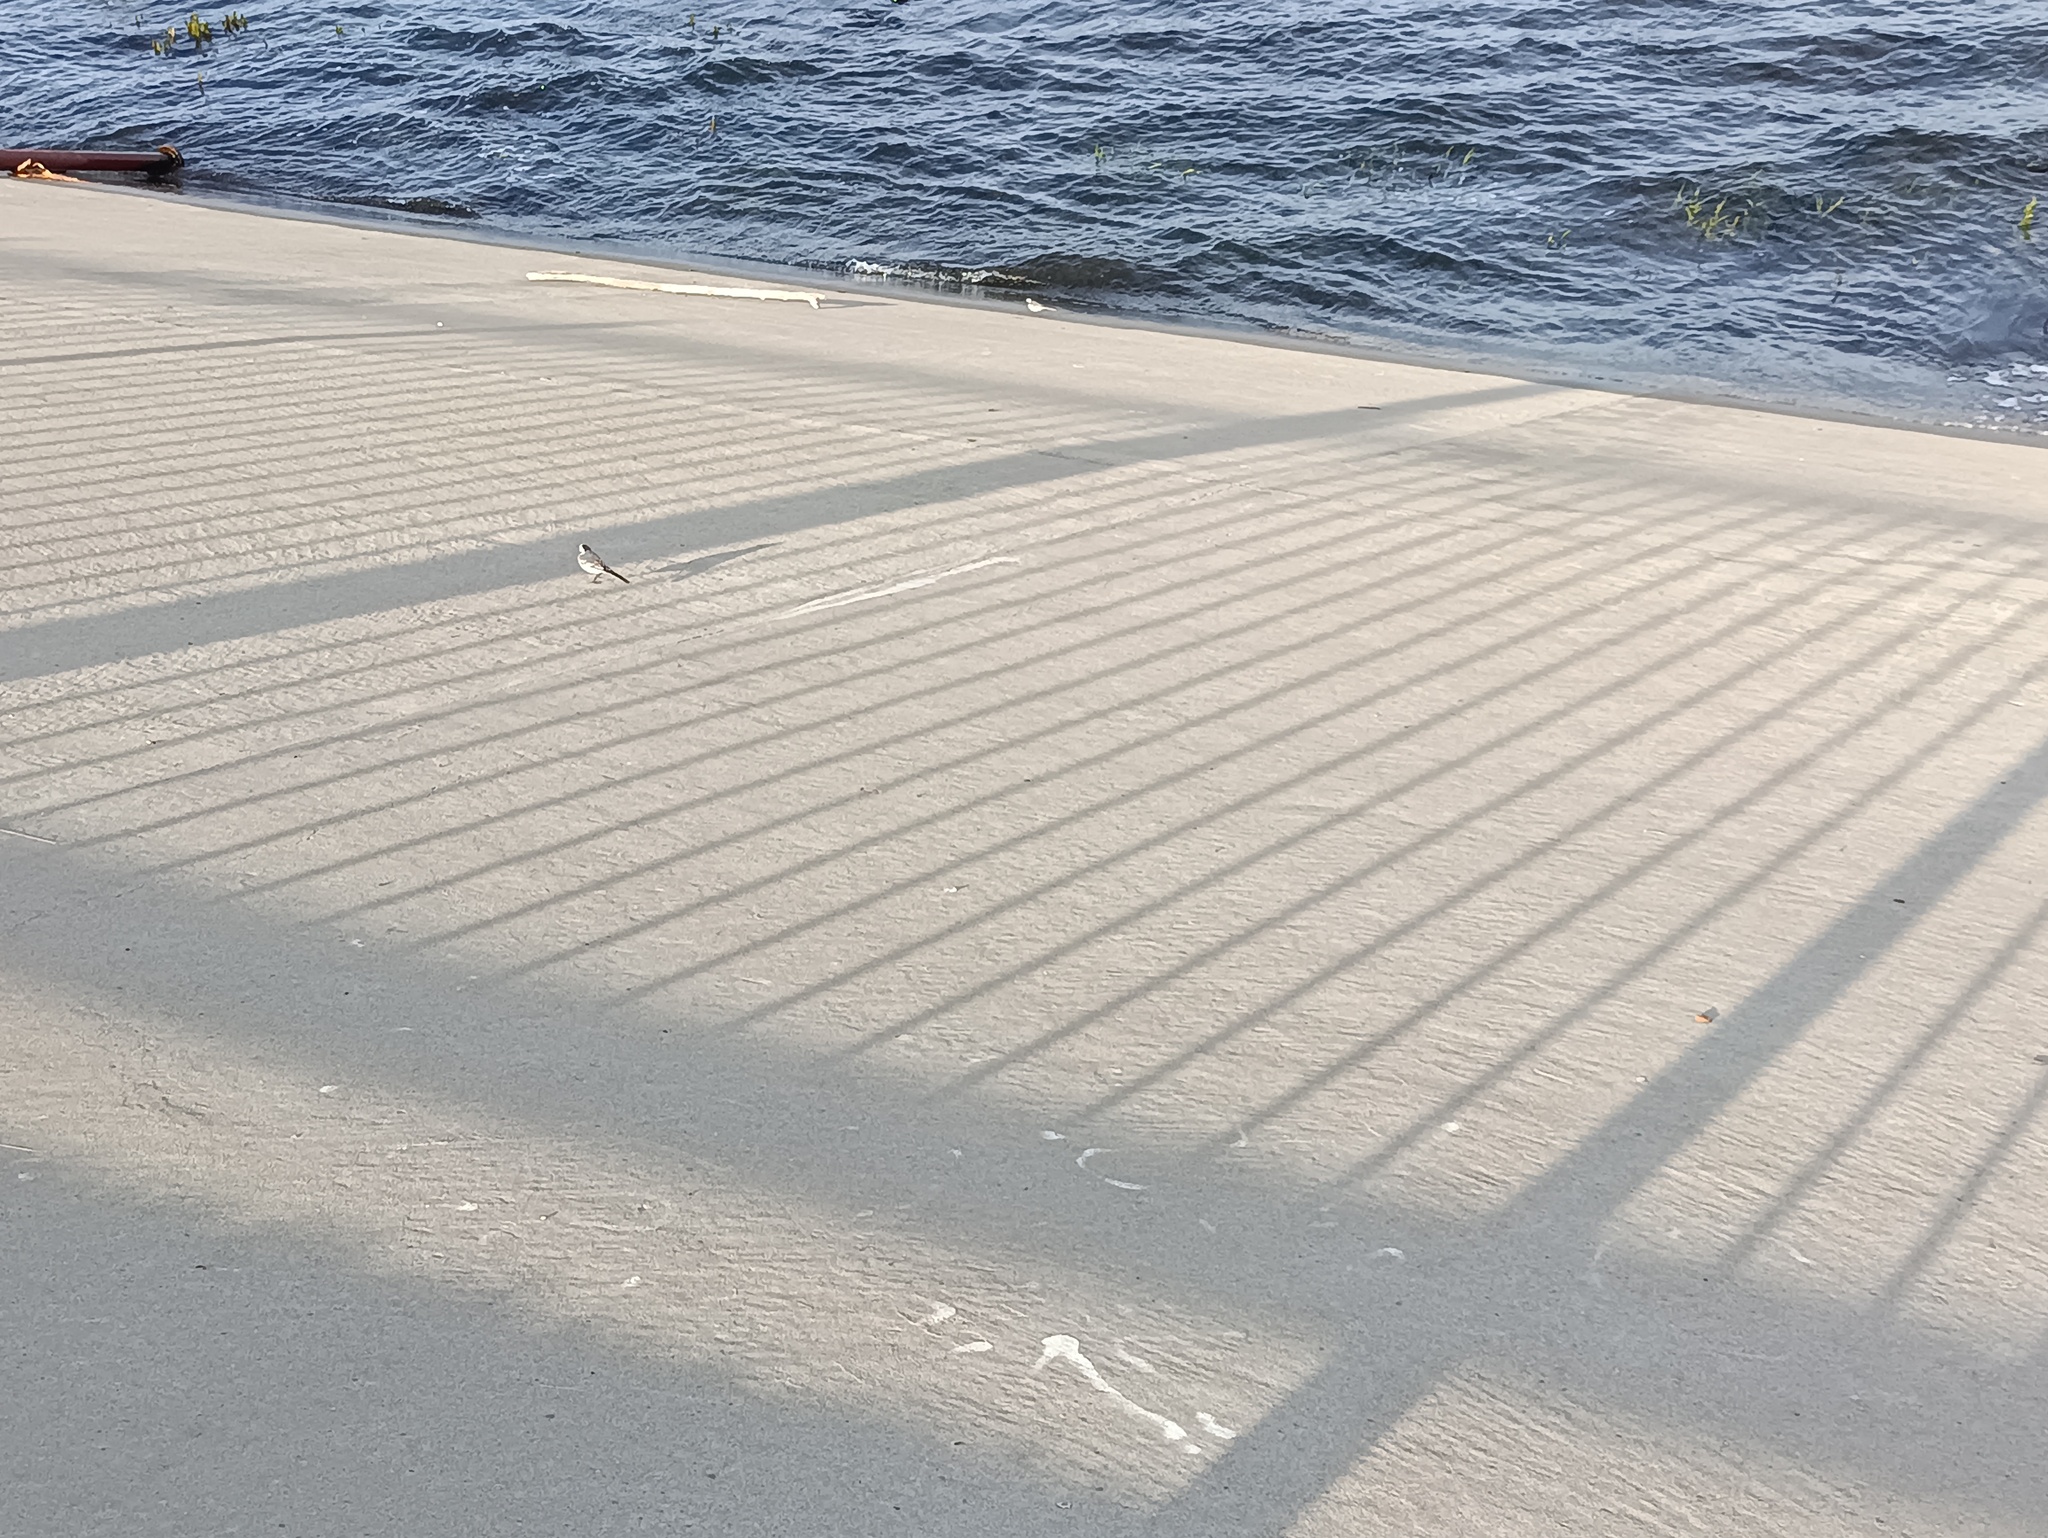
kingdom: Animalia
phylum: Chordata
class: Aves
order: Passeriformes
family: Motacillidae
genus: Motacilla
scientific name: Motacilla alba
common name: White wagtail
